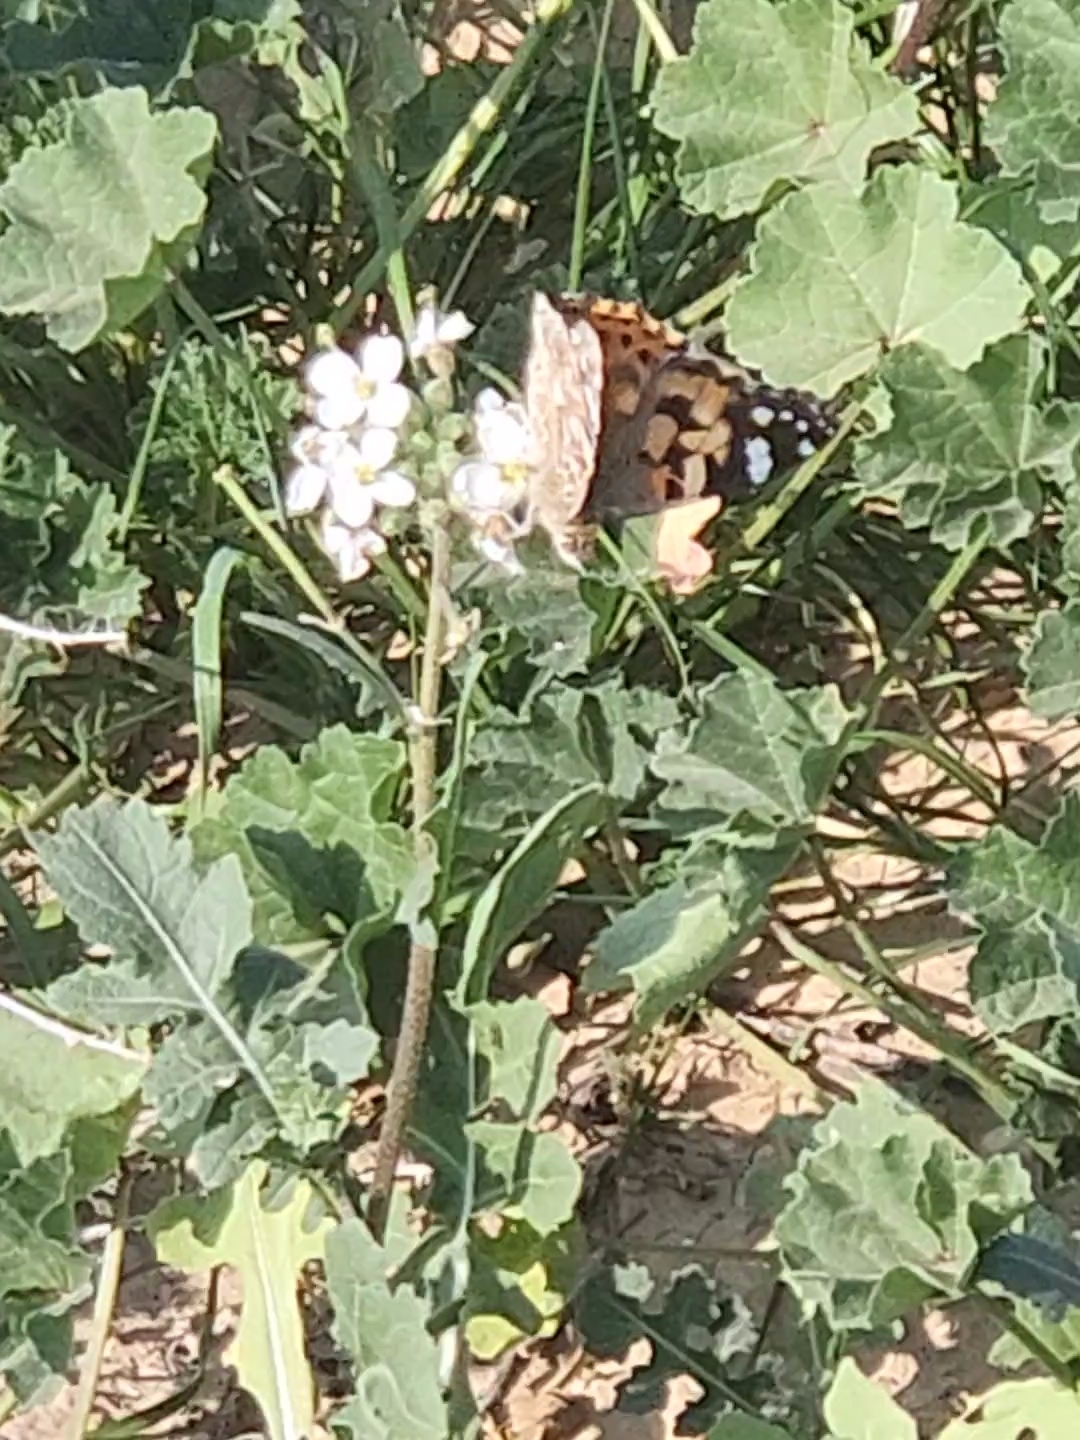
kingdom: Animalia
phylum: Arthropoda
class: Insecta
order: Lepidoptera
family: Nymphalidae
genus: Vanessa
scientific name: Vanessa cardui
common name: Painted lady
